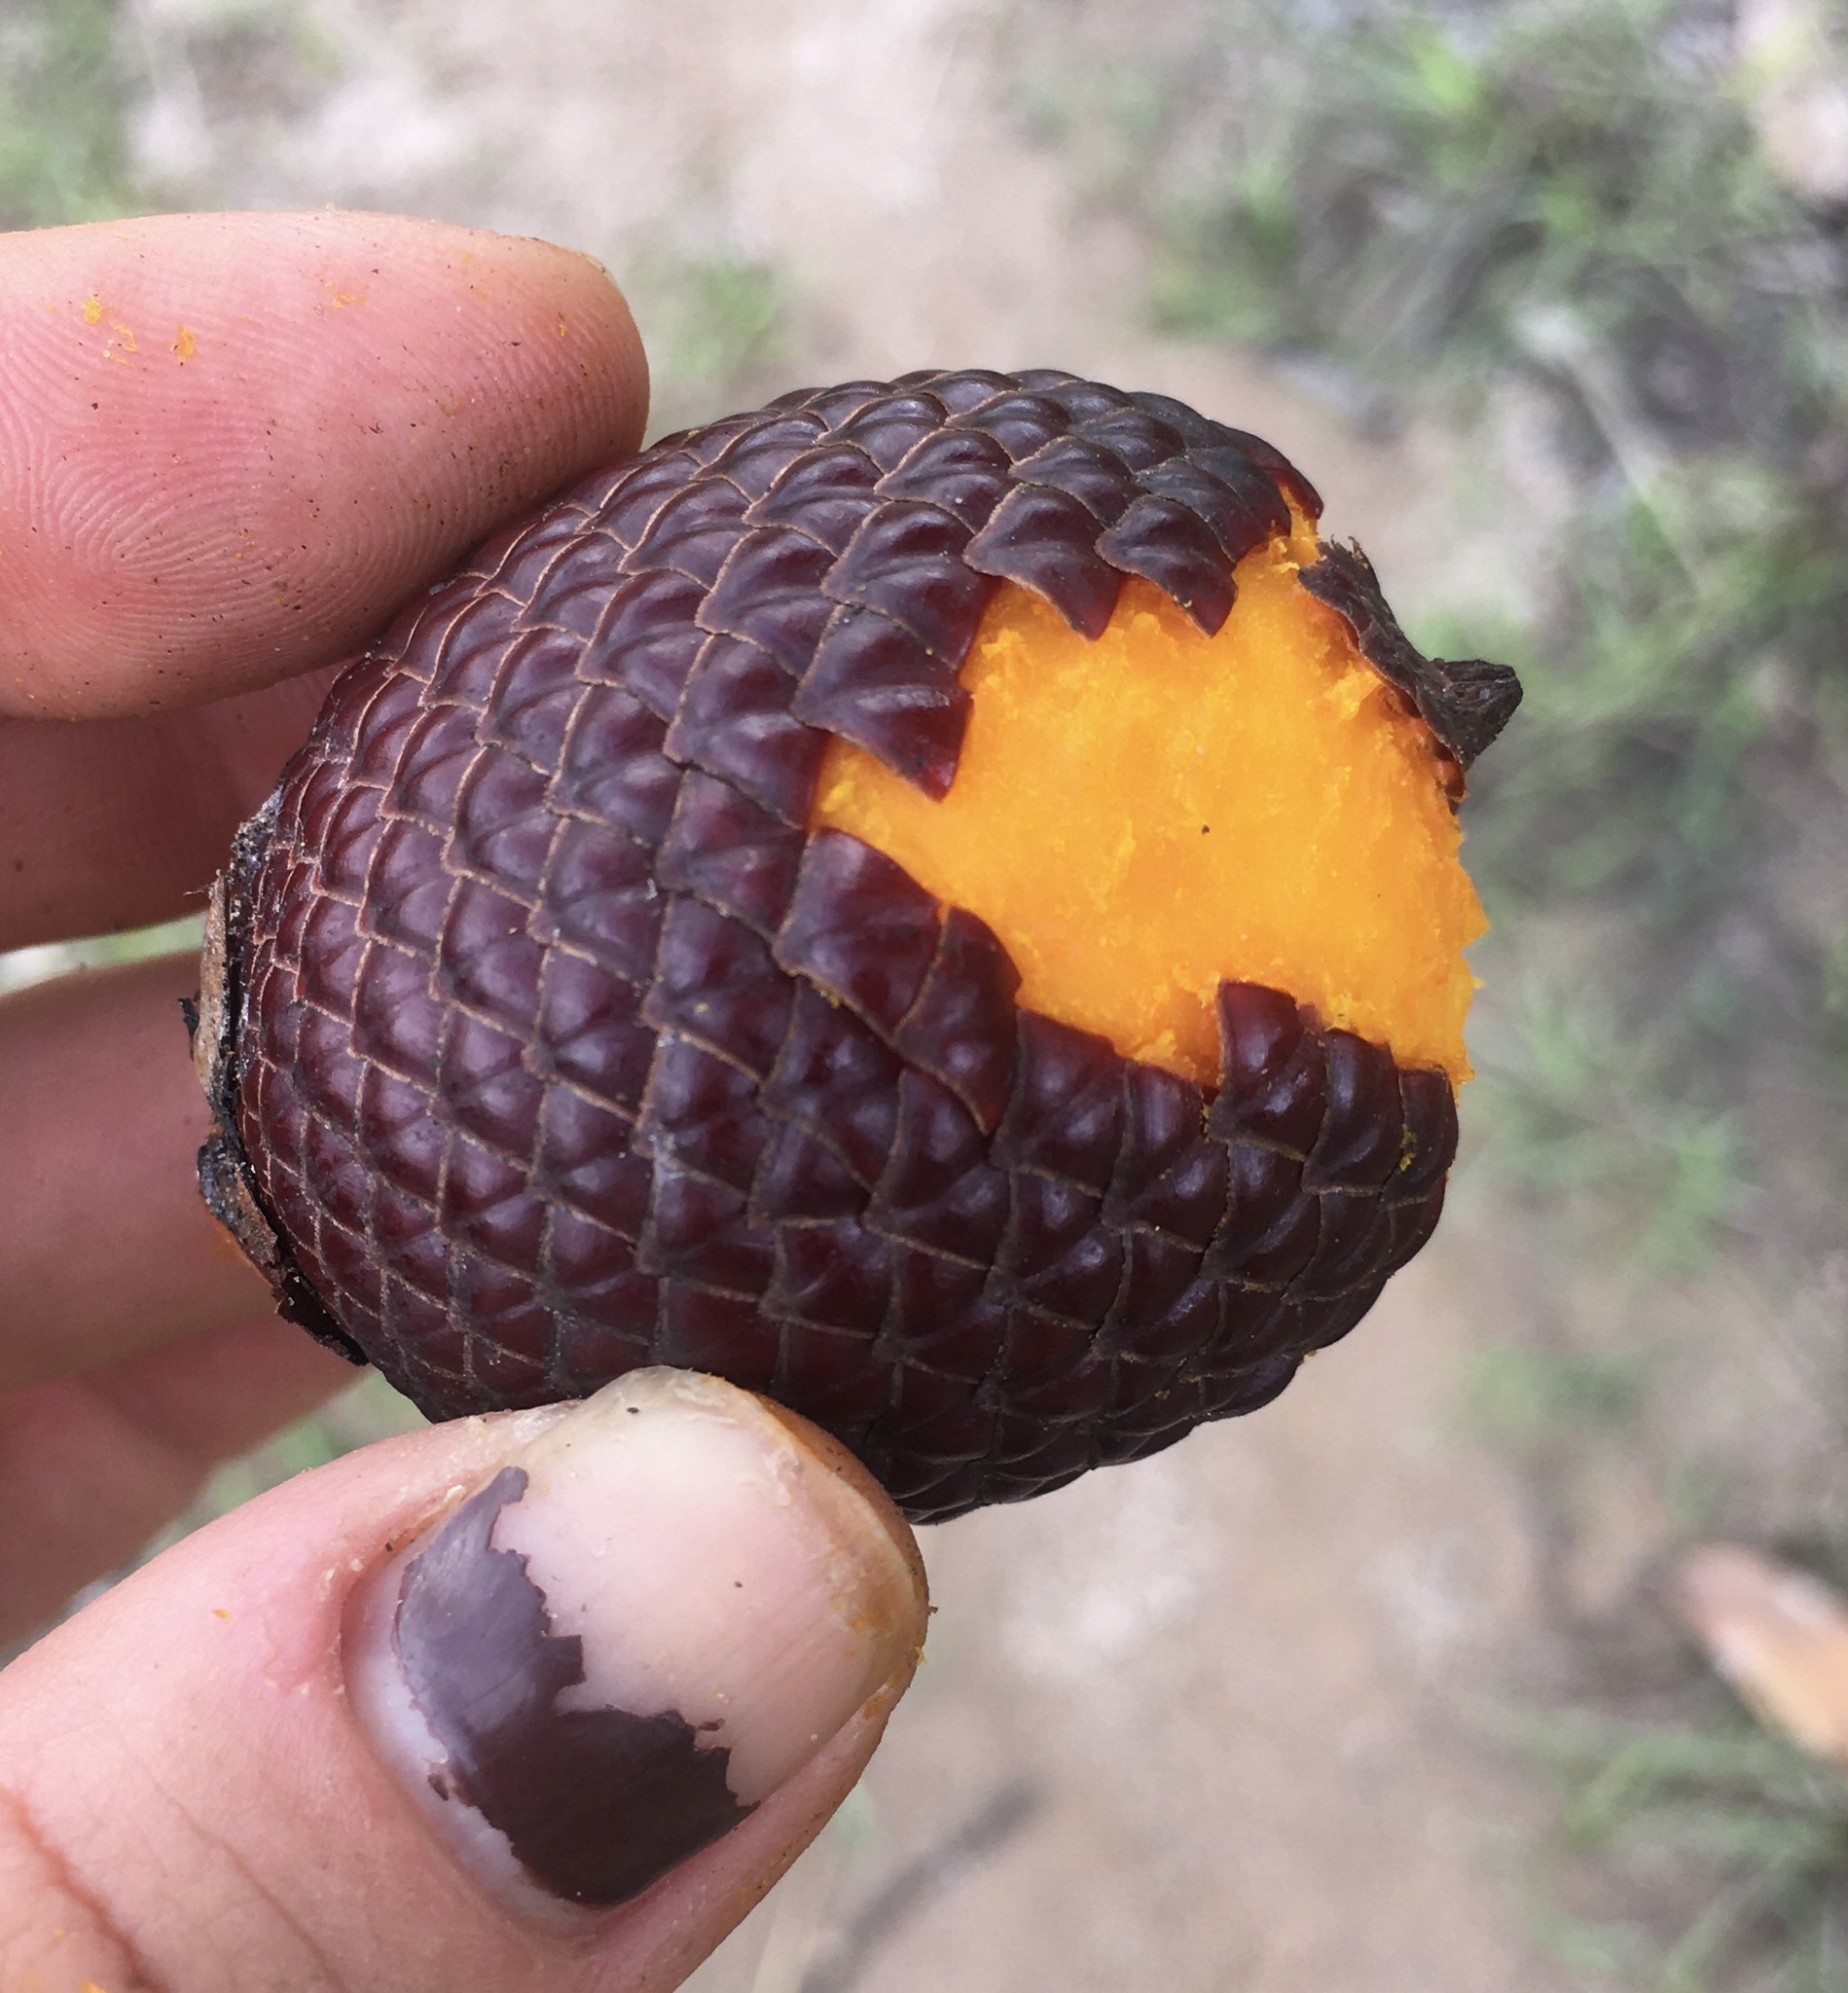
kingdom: Plantae
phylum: Tracheophyta
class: Liliopsida
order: Arecales
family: Arecaceae
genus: Mauritia
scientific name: Mauritia flexuosa
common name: Tree-of-life
